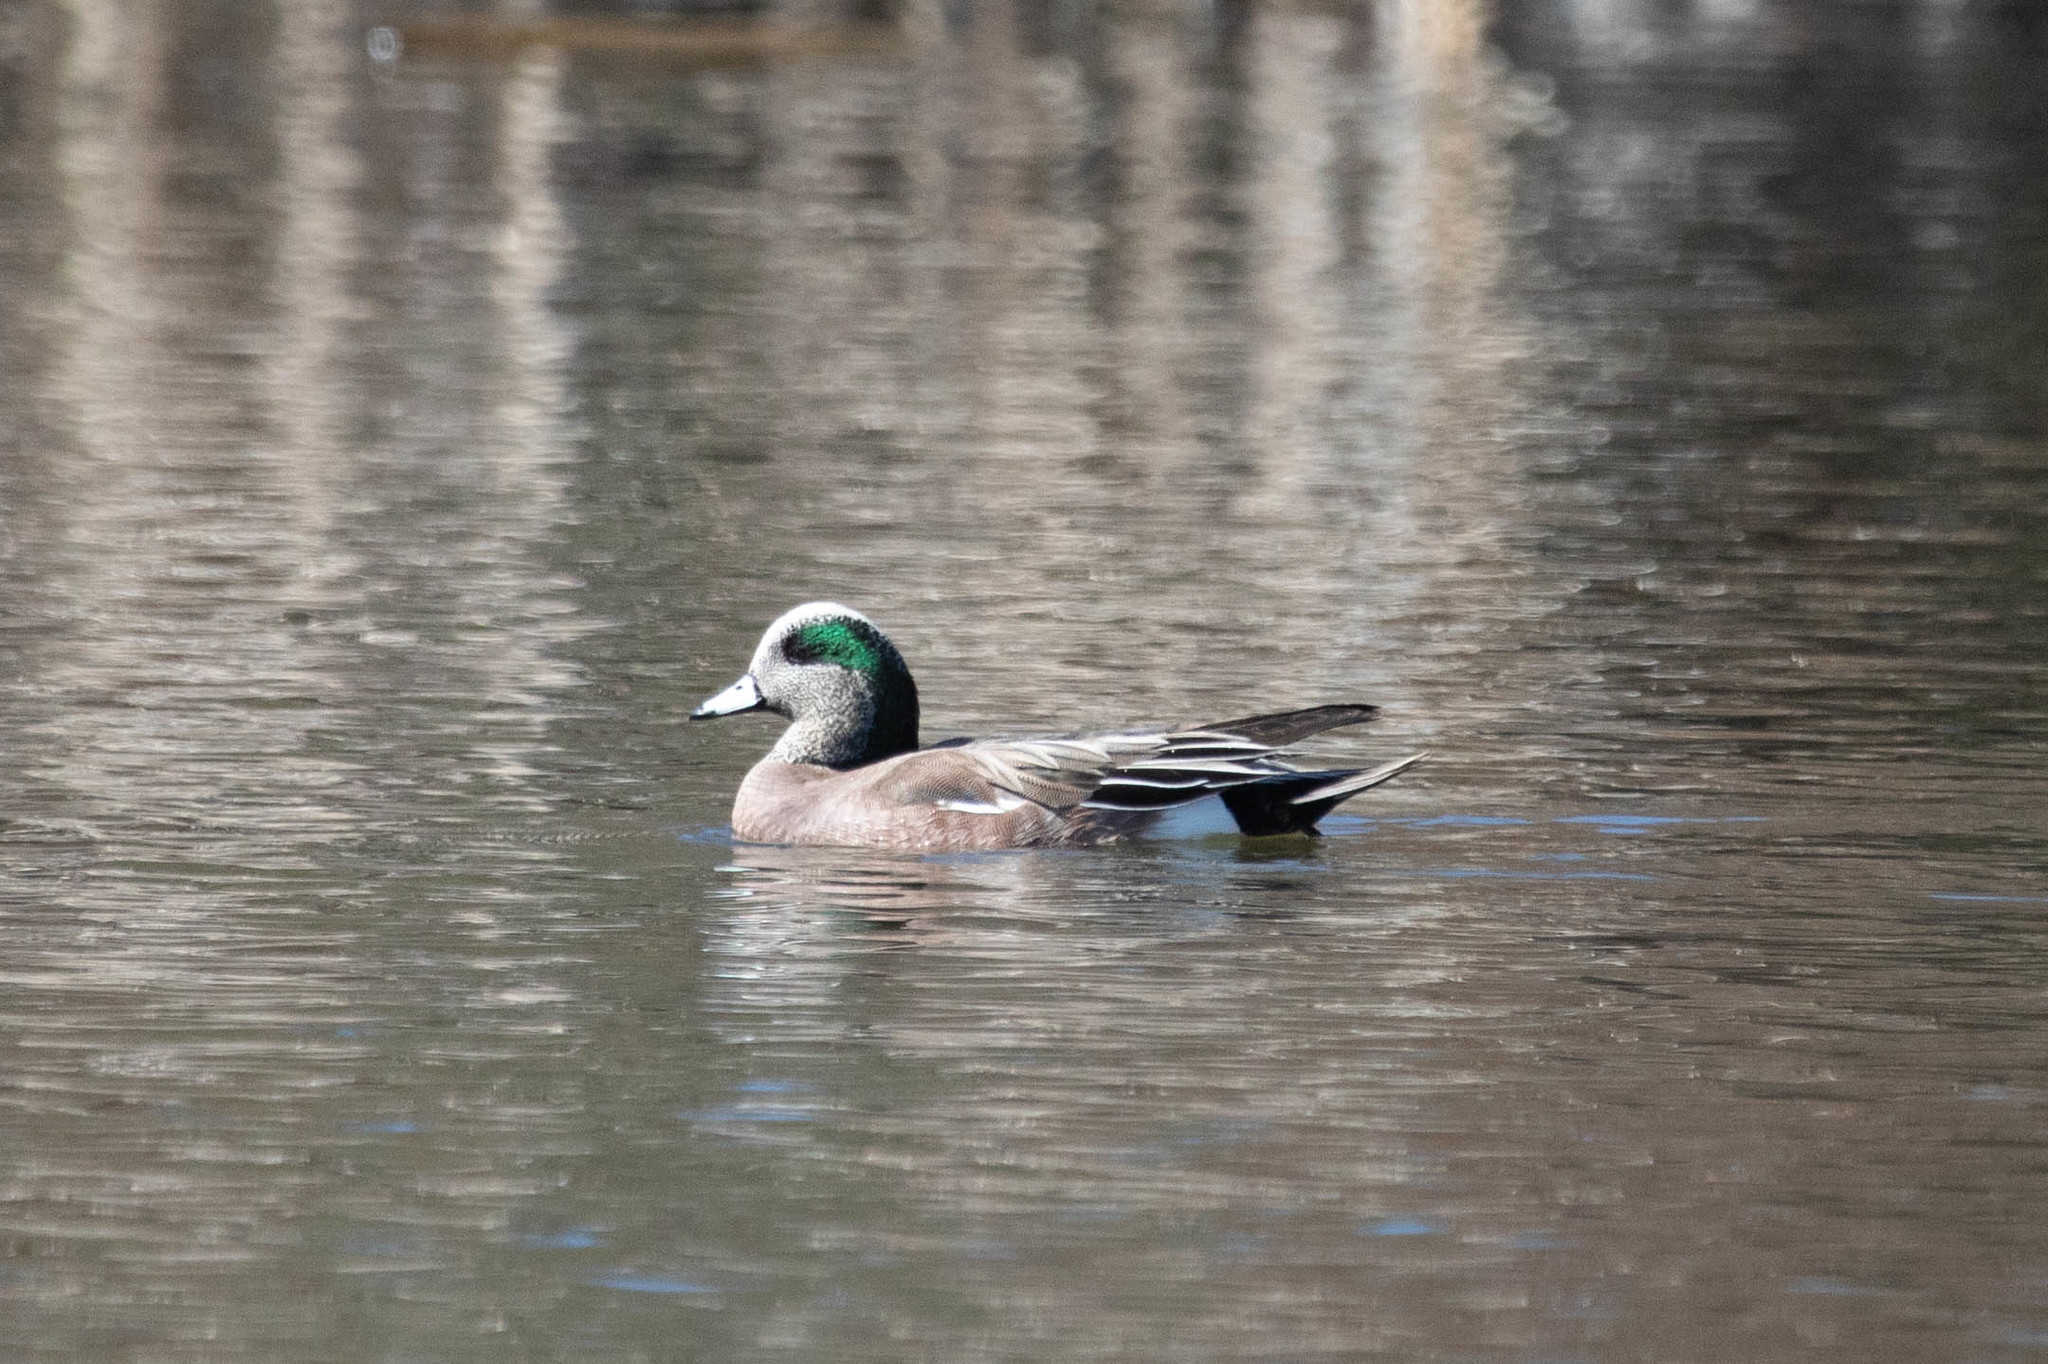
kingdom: Animalia
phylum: Chordata
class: Aves
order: Anseriformes
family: Anatidae
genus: Mareca
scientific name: Mareca americana
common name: American wigeon
